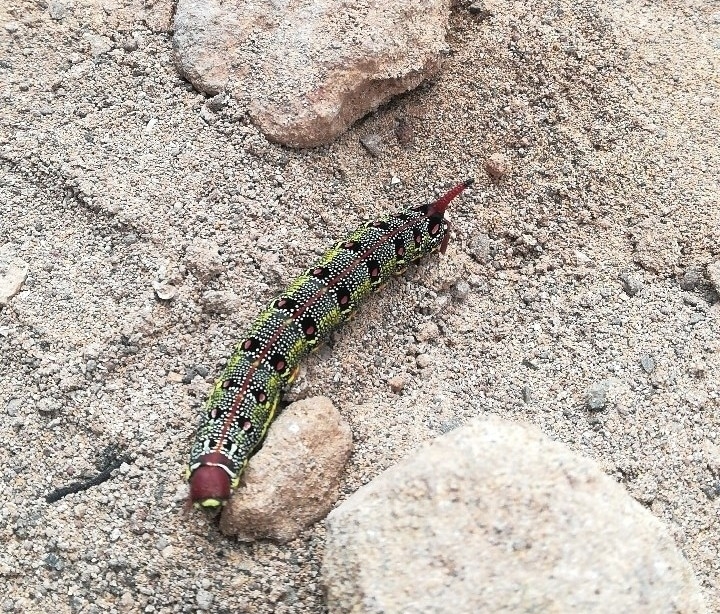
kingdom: Animalia
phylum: Arthropoda
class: Insecta
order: Lepidoptera
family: Sphingidae
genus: Hyles
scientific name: Hyles tithymali
